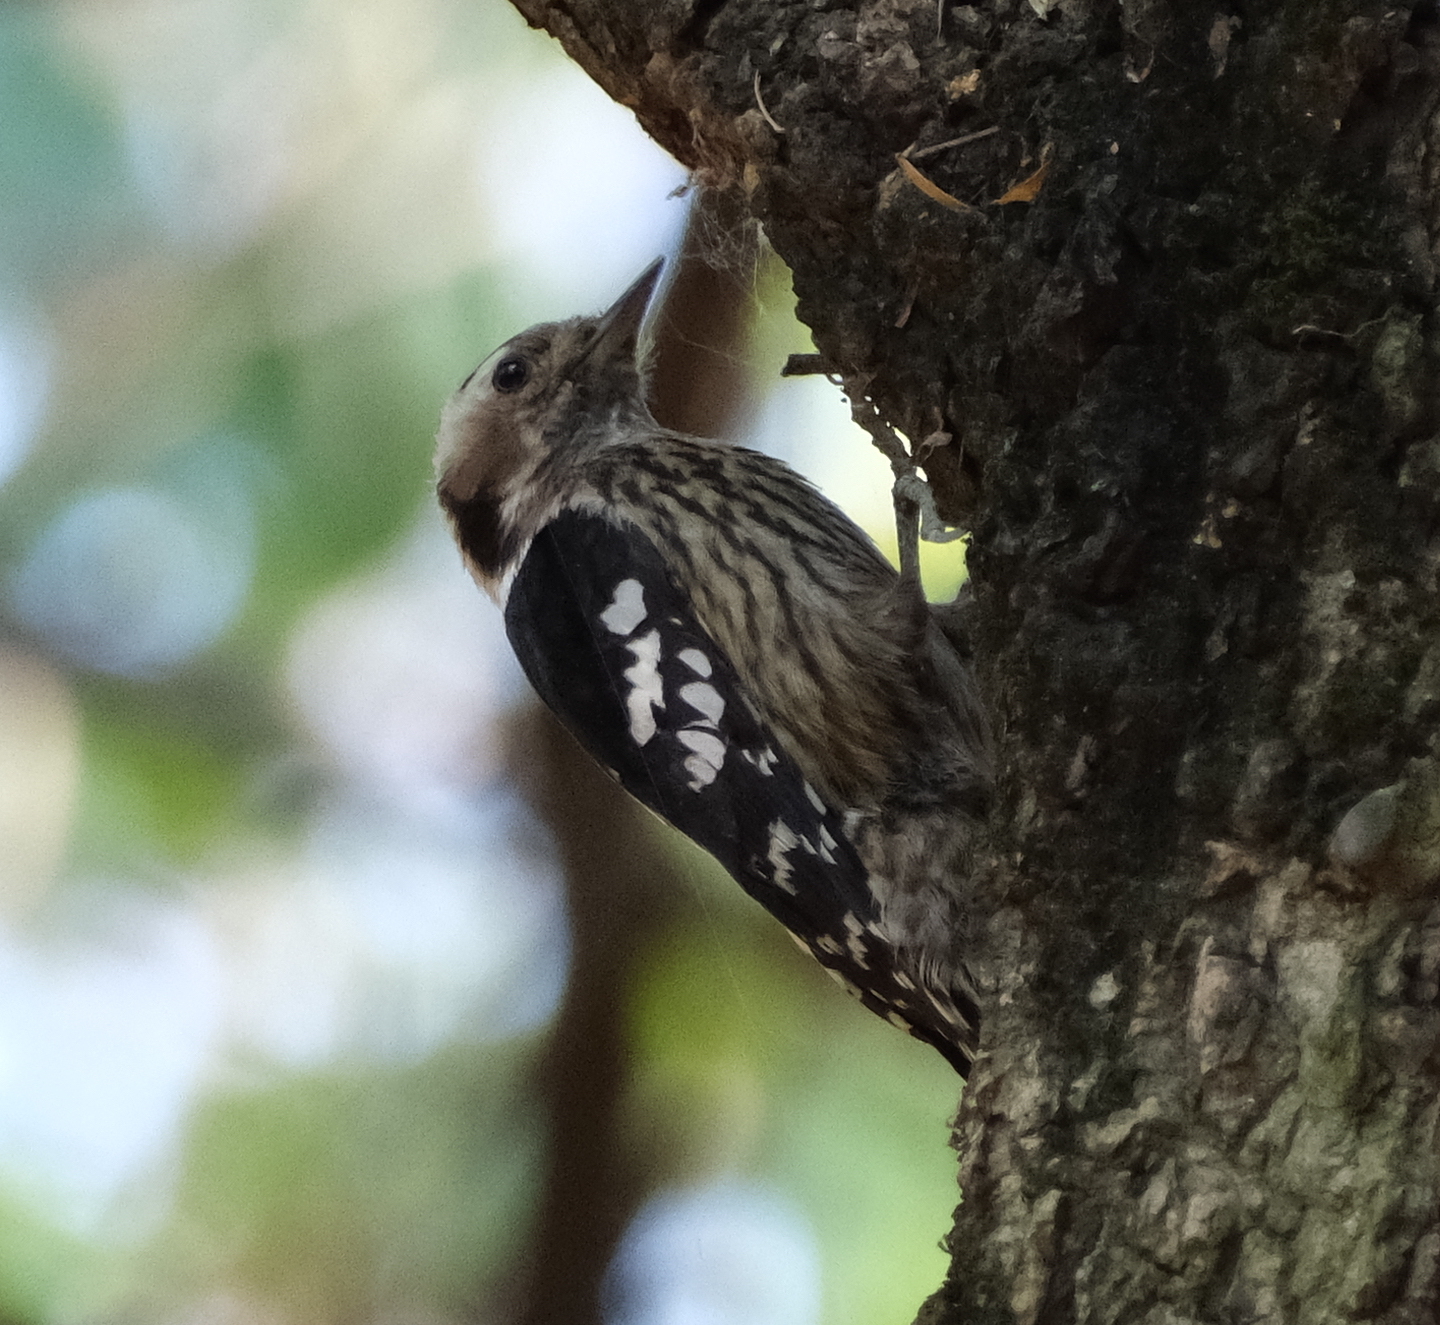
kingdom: Animalia
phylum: Chordata
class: Aves
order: Piciformes
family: Picidae
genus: Yungipicus
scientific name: Yungipicus canicapillus
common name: Grey-capped pygmy woodpecker
